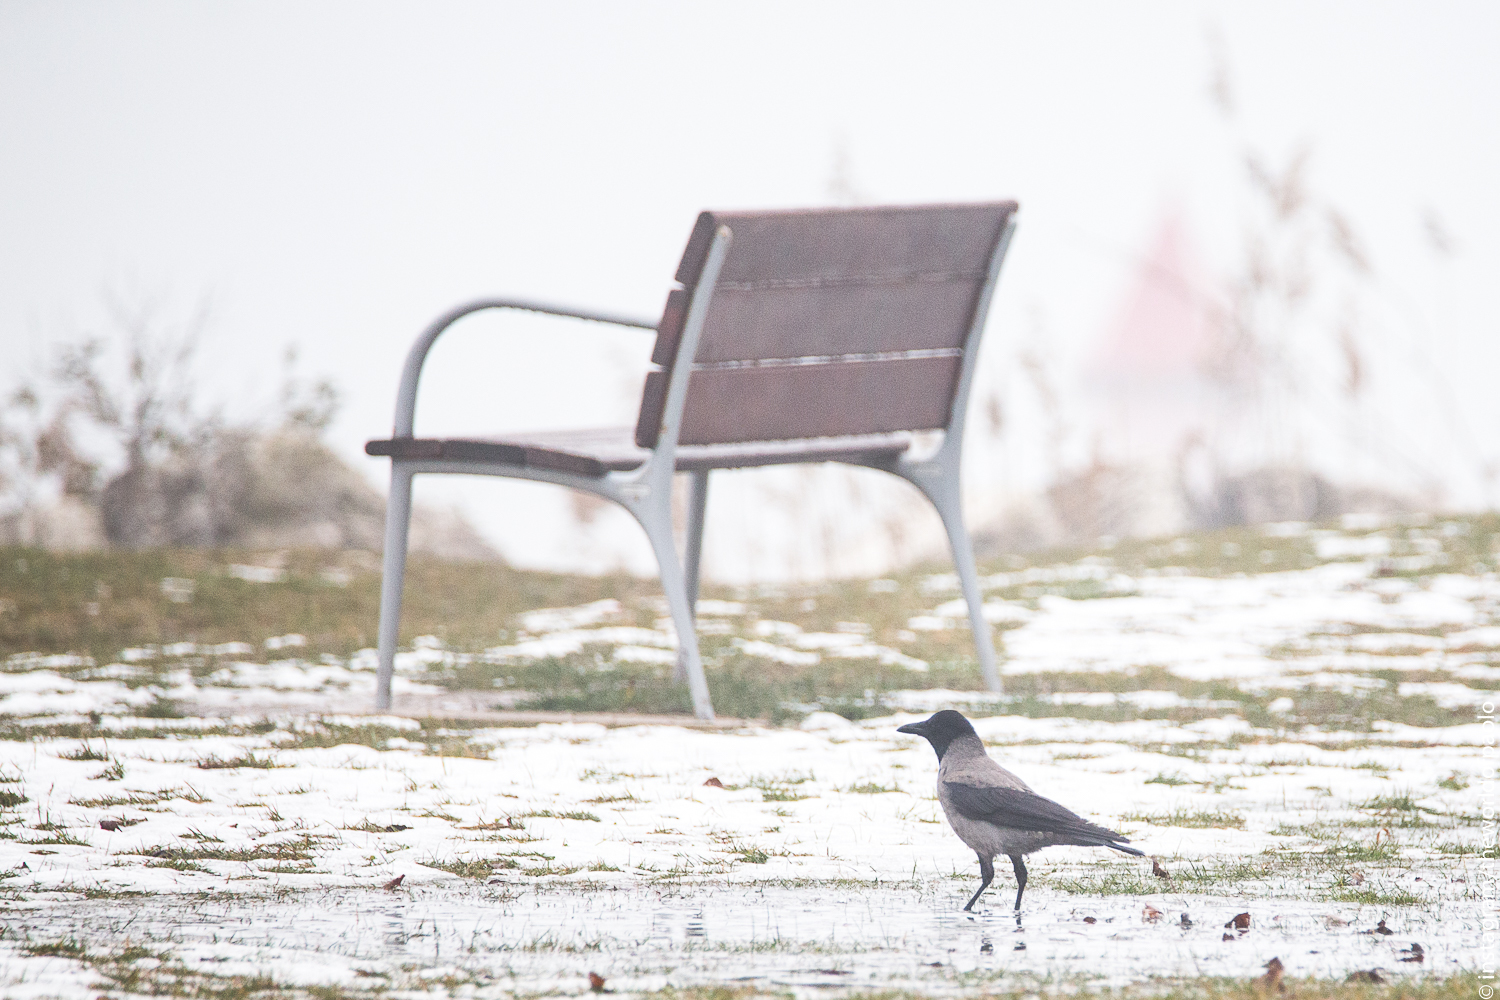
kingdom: Animalia
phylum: Chordata
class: Aves
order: Passeriformes
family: Corvidae
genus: Corvus
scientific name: Corvus cornix
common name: Hooded crow
